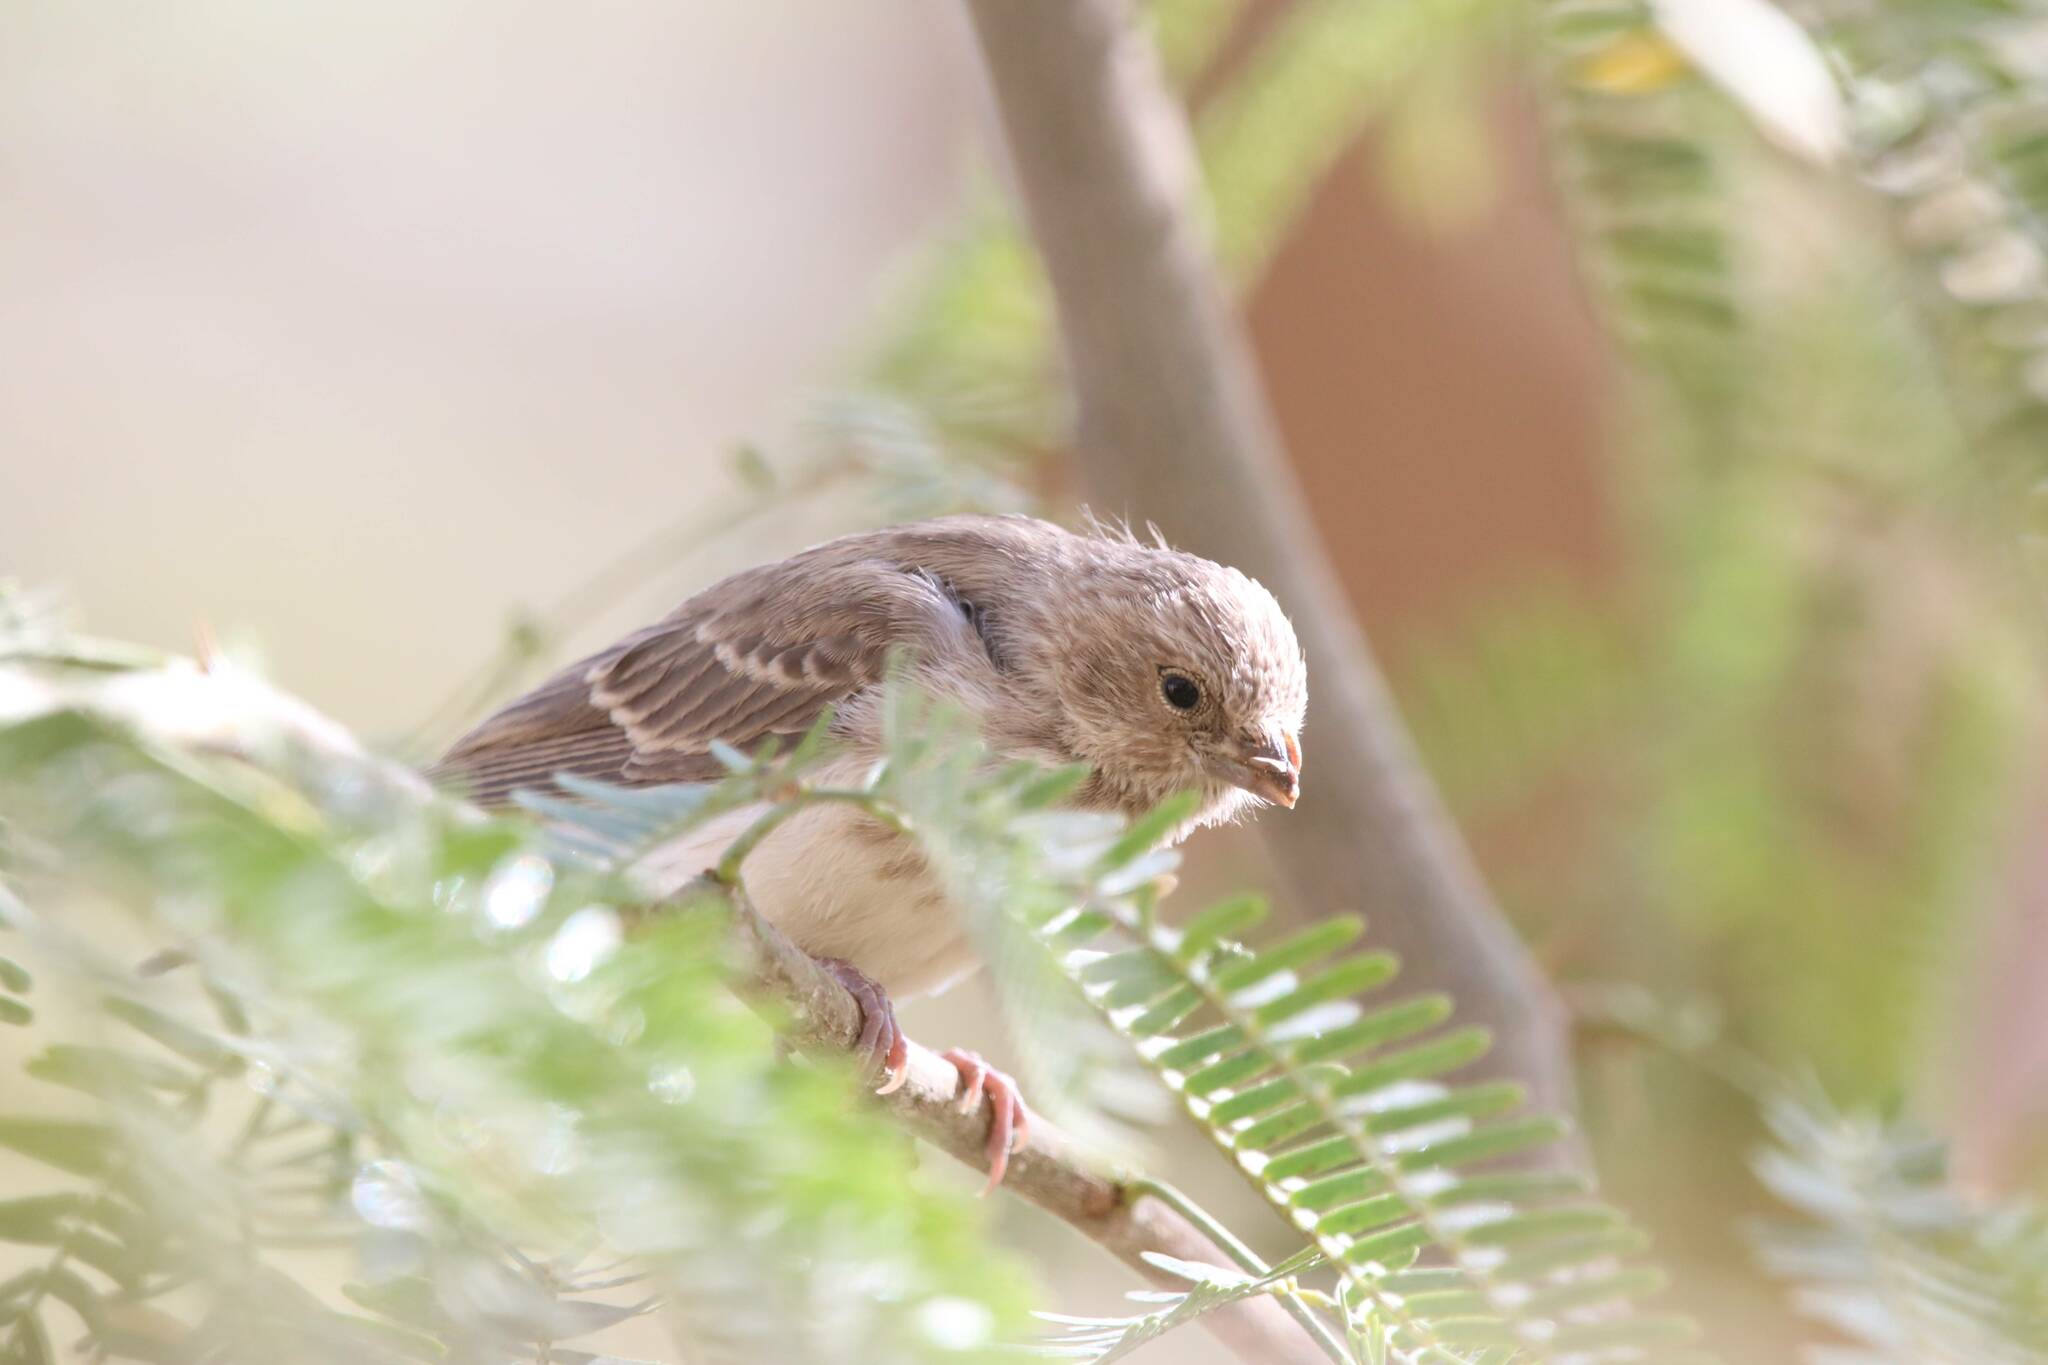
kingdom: Animalia
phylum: Chordata
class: Aves
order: Passeriformes
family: Fringillidae
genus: Crithagra
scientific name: Crithagra leucopygia
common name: White-rumped seedeater
